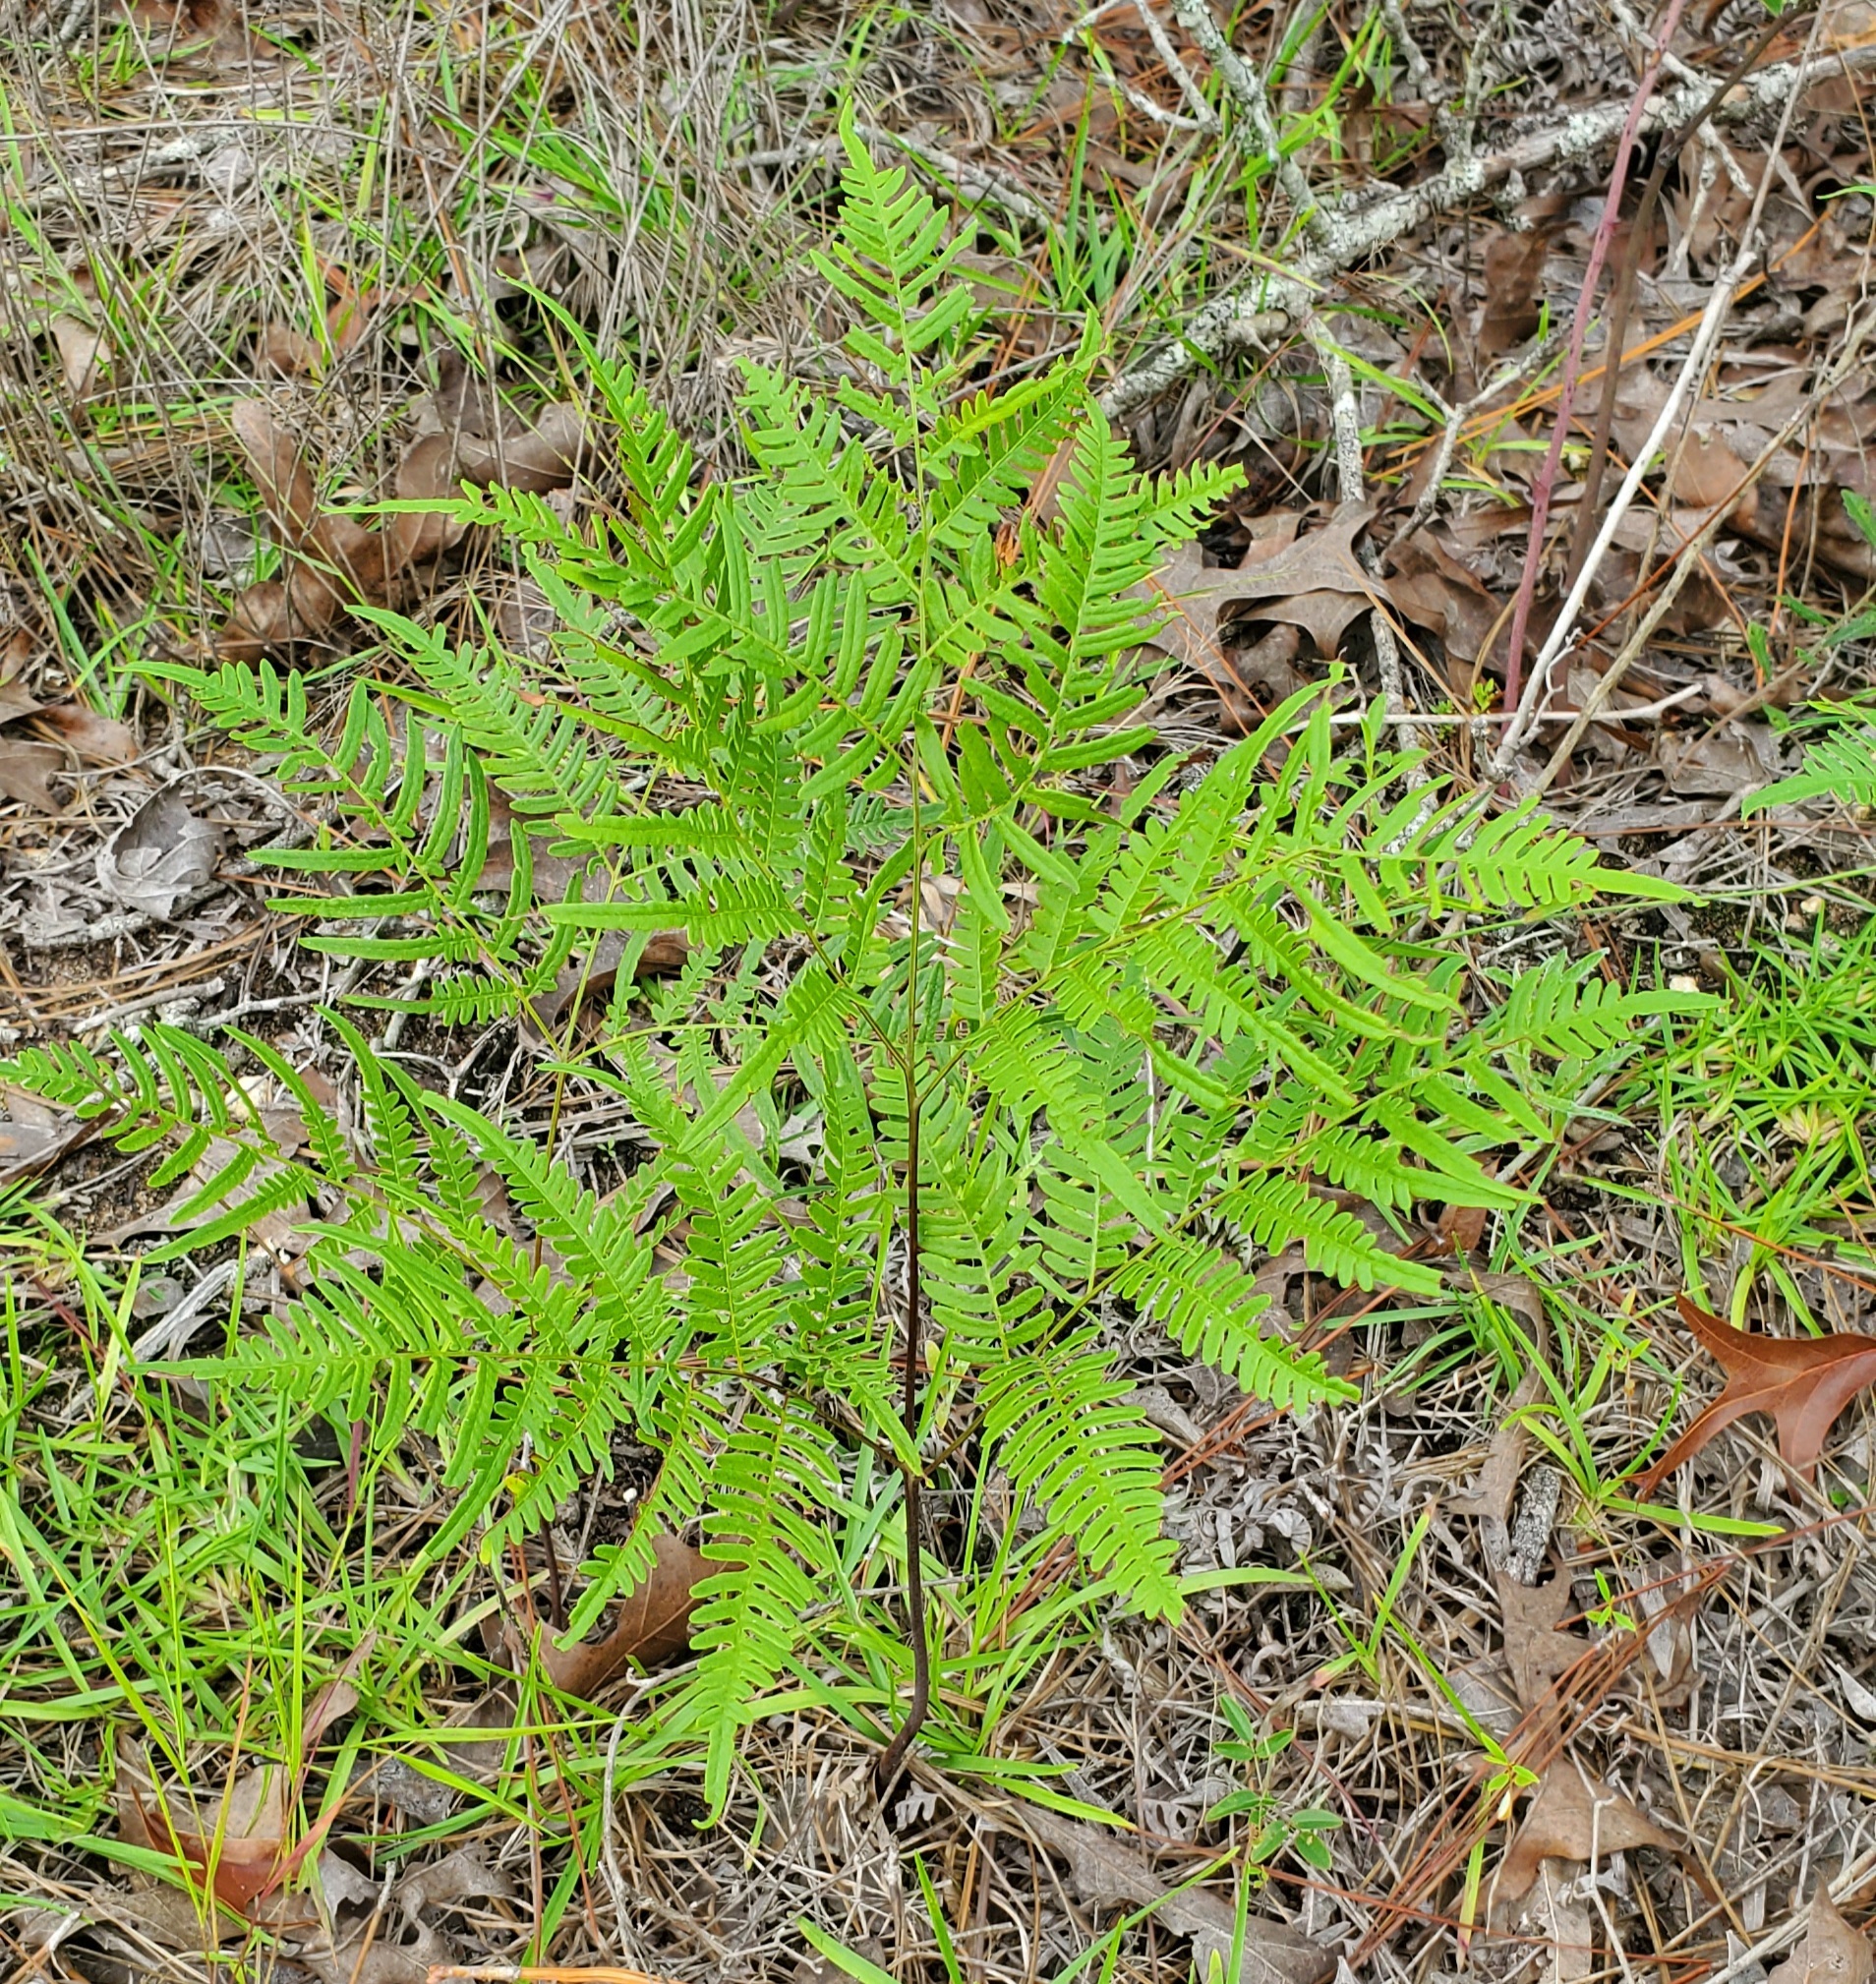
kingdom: Plantae
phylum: Tracheophyta
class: Polypodiopsida
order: Polypodiales
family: Dennstaedtiaceae
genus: Pteridium
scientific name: Pteridium aquilinum
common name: Bracken
